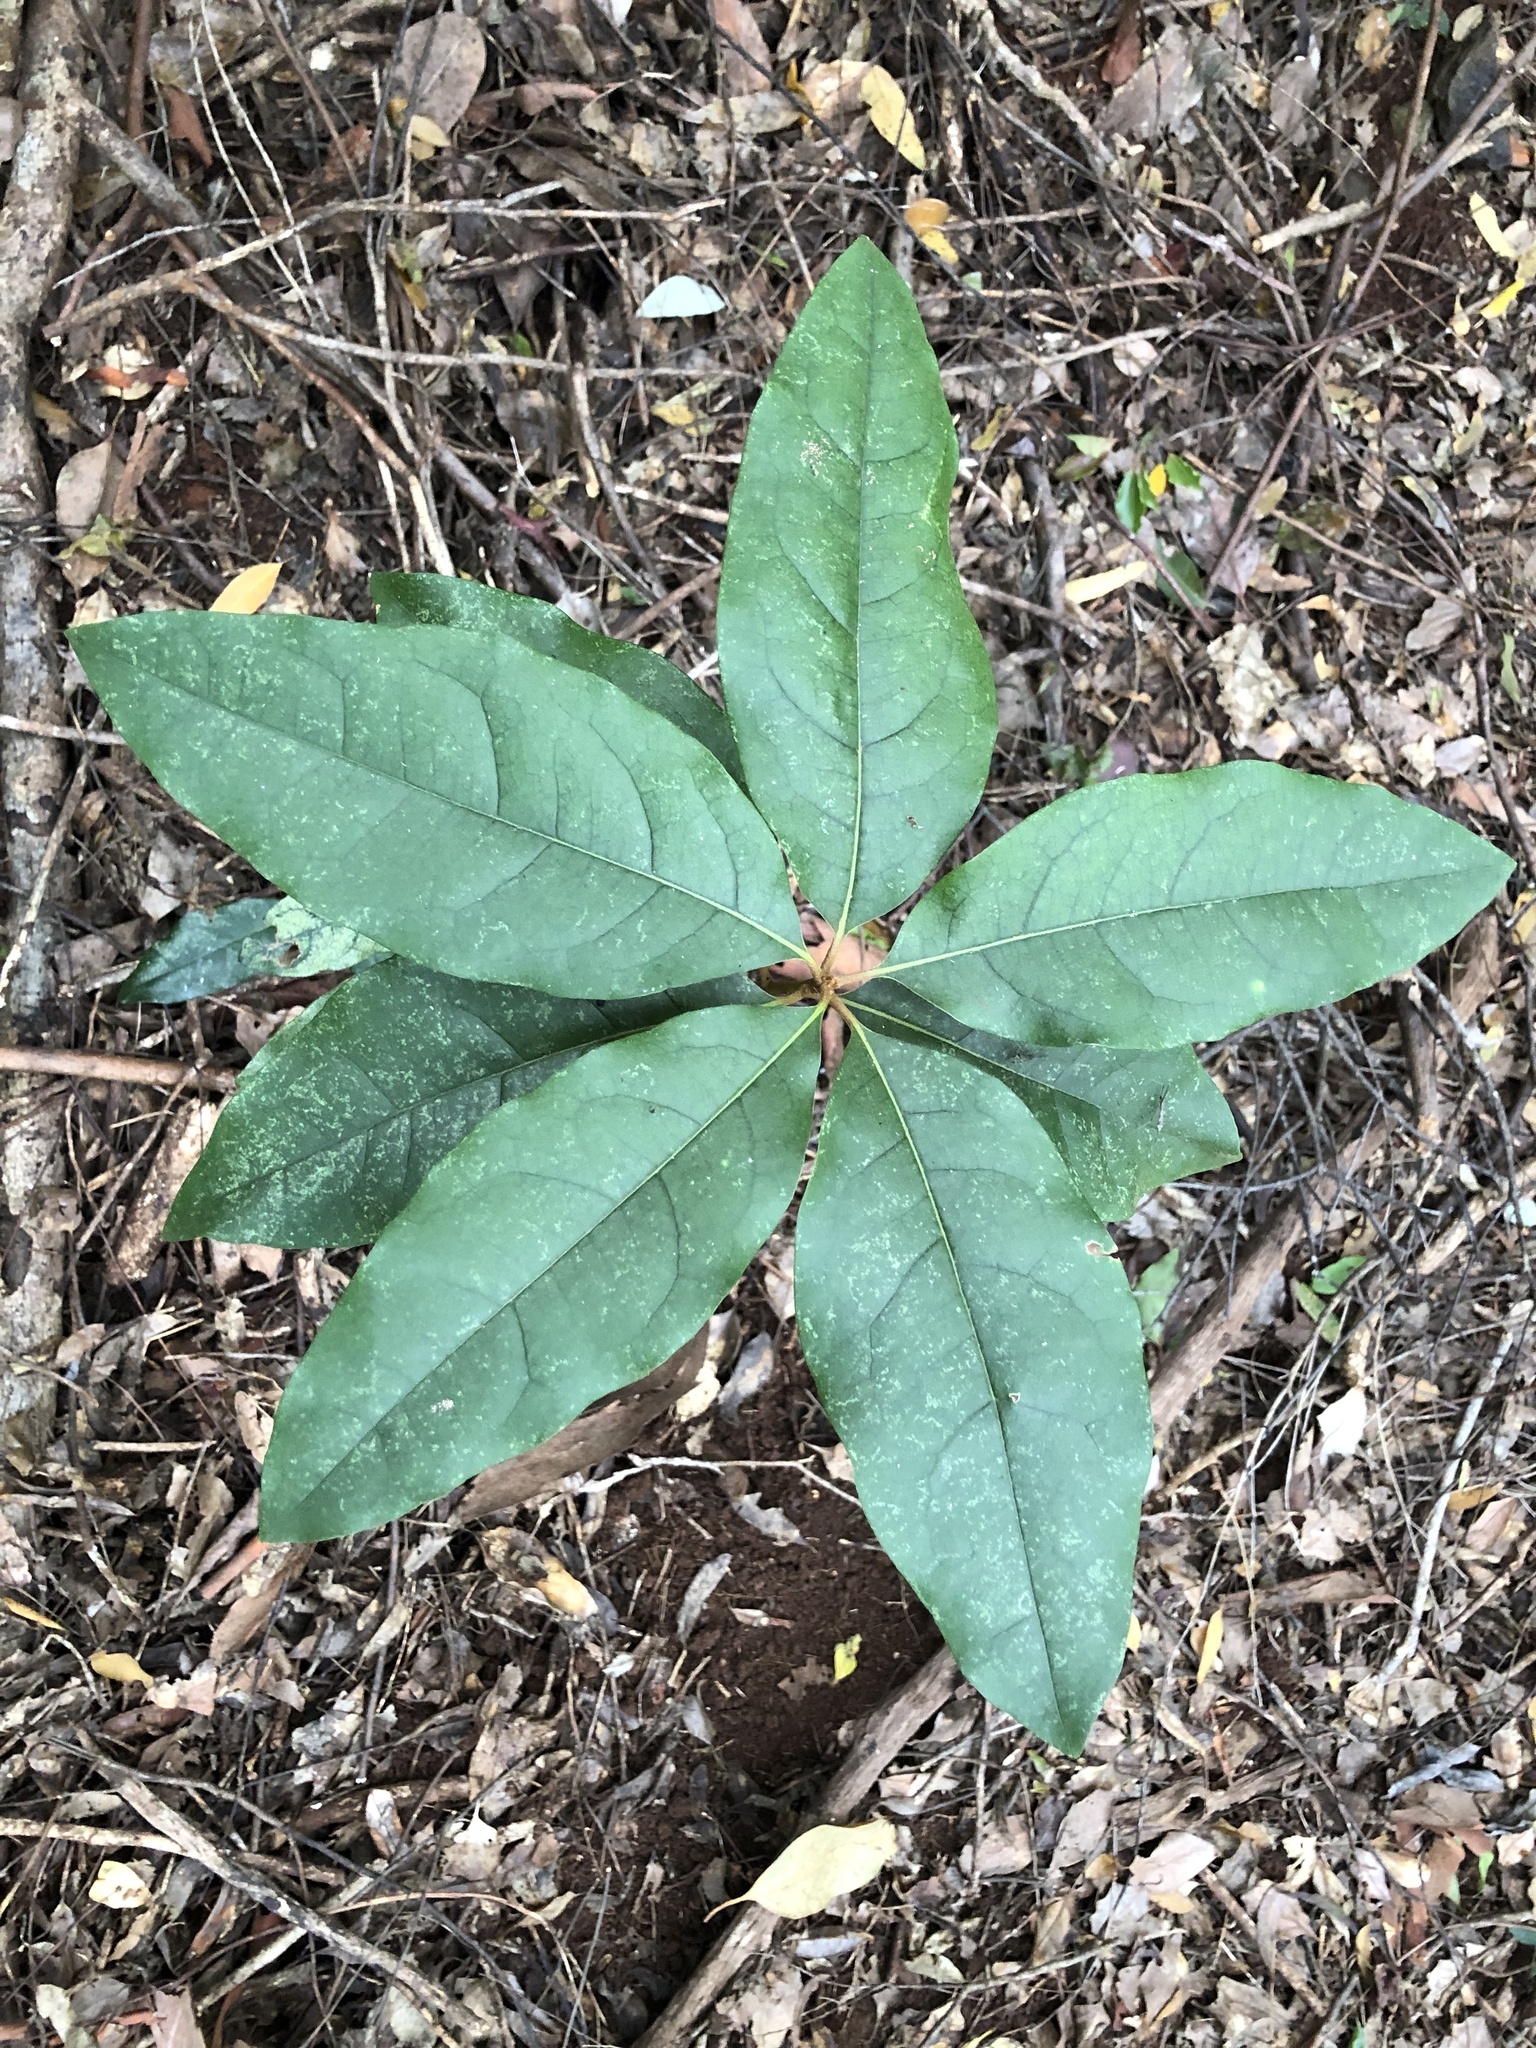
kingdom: Plantae
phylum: Tracheophyta
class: Magnoliopsida
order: Apiales
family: Pittosporaceae
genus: Pittosporum
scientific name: Pittosporum revolutum
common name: Brisbane-laurel
